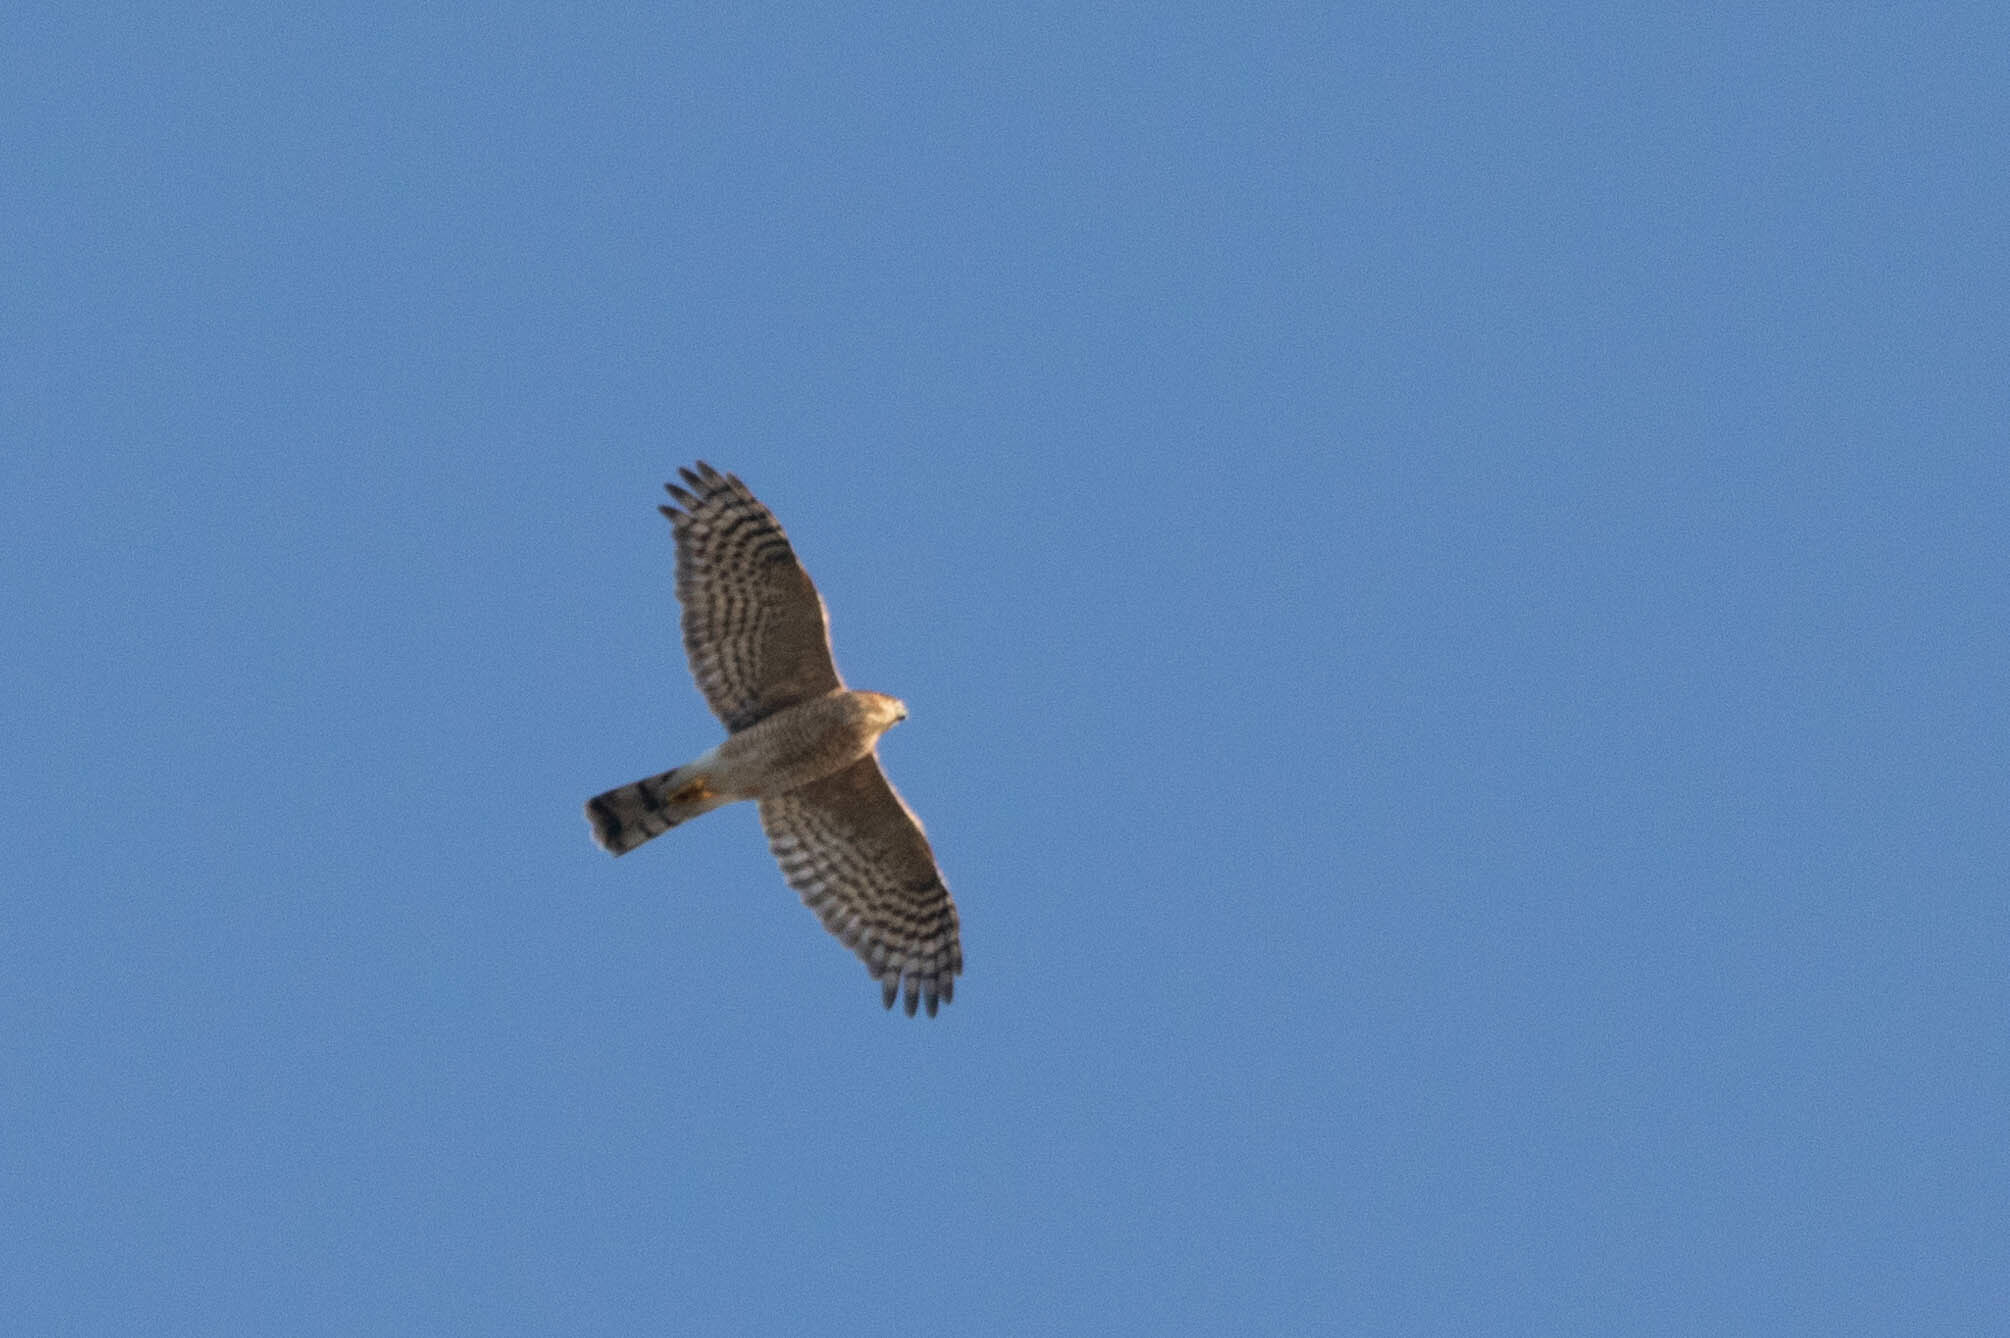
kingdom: Animalia
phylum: Chordata
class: Aves
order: Accipitriformes
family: Accipitridae
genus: Accipiter
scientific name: Accipiter striatus
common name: Sharp-shinned hawk
